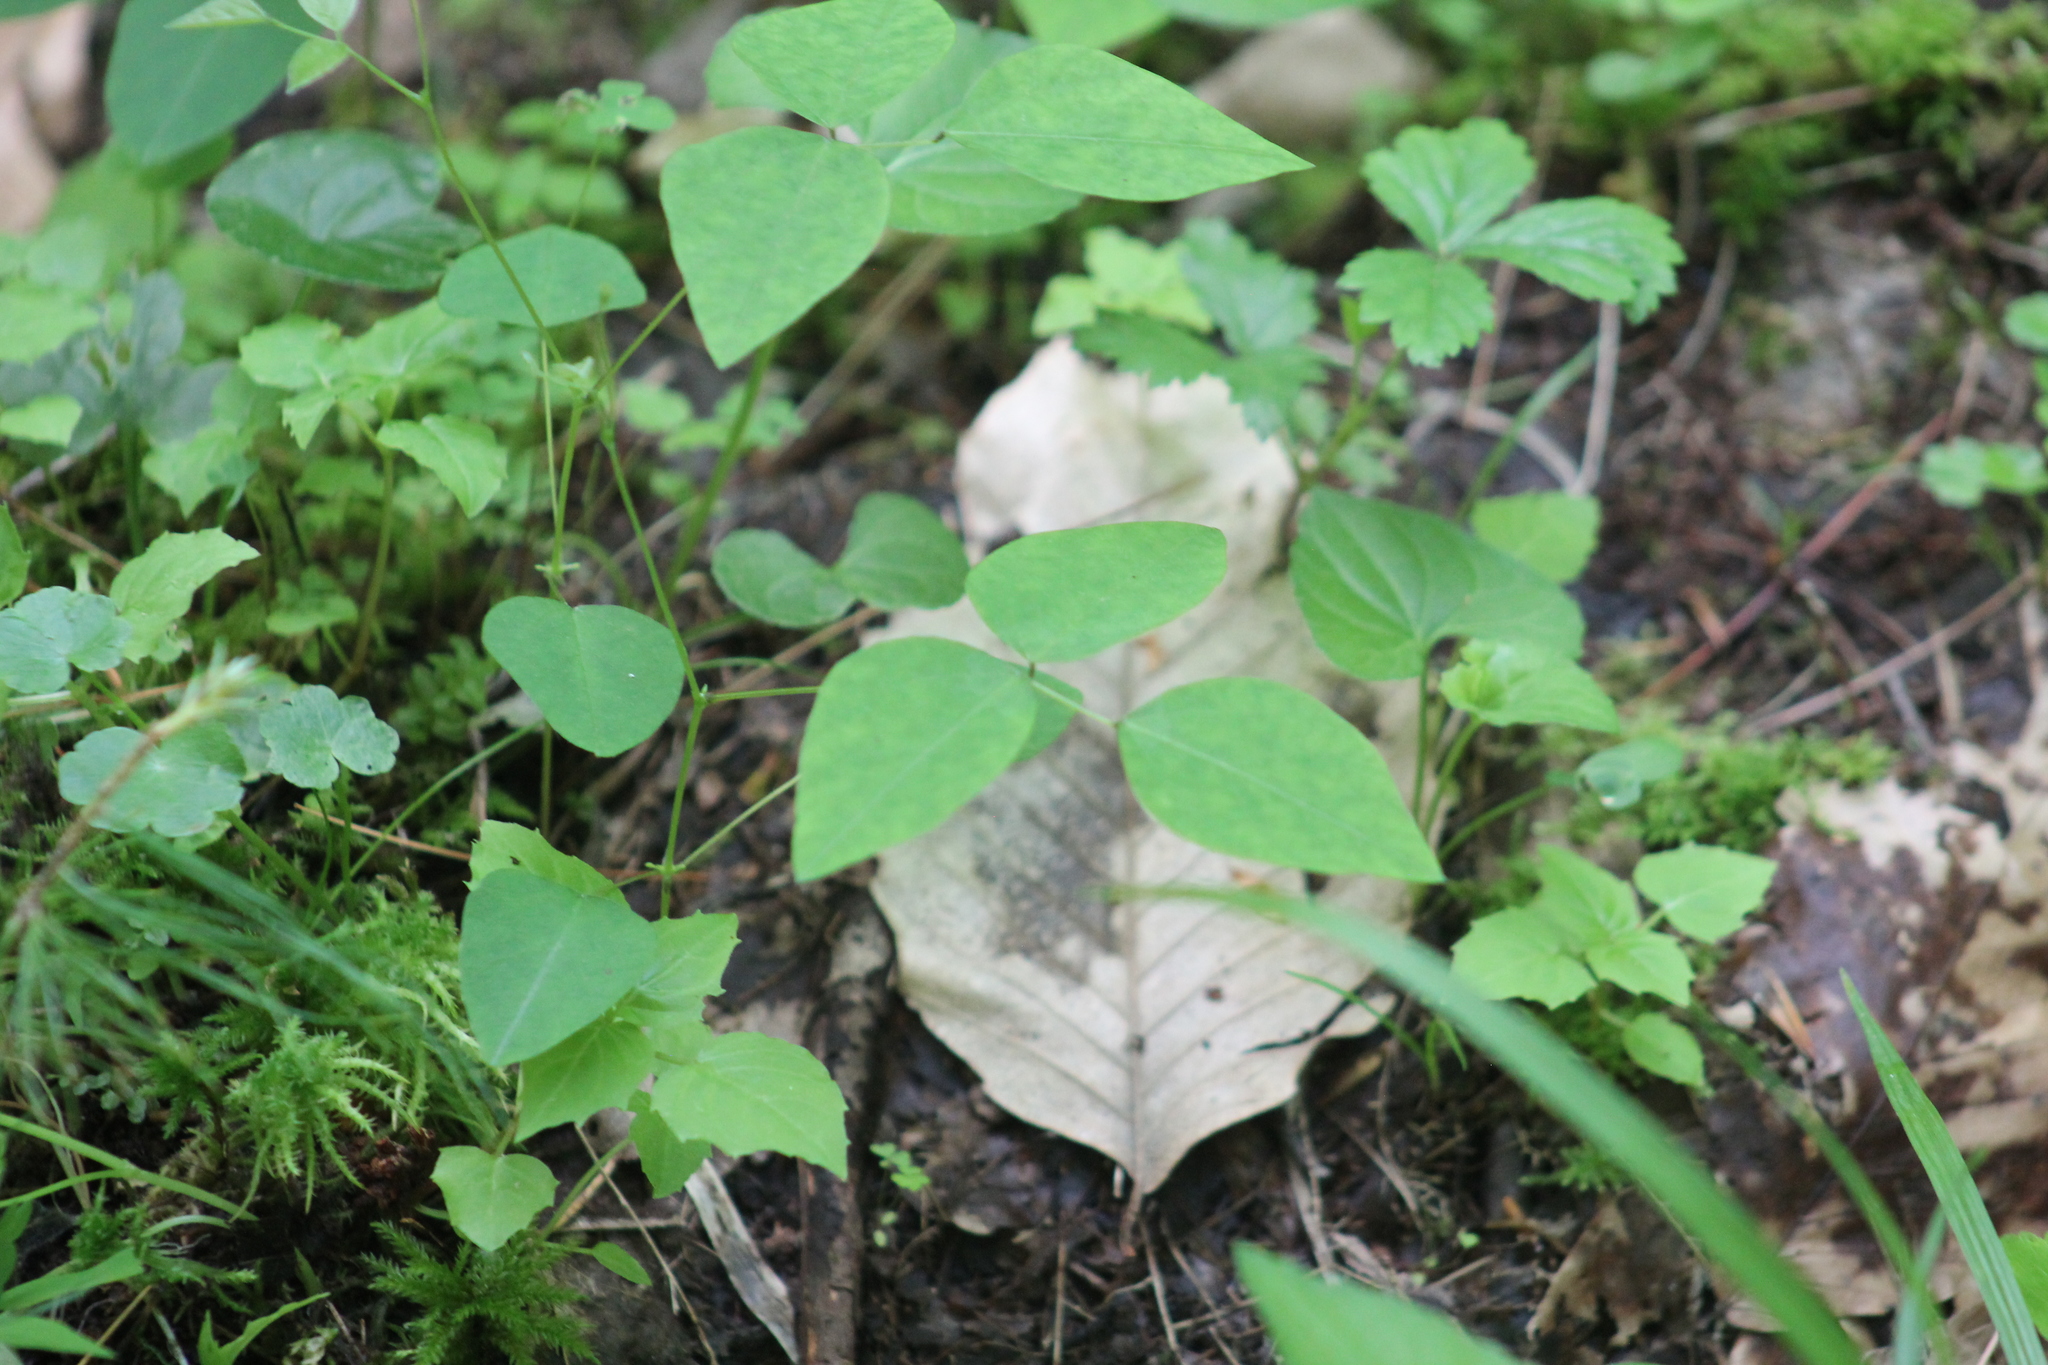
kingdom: Plantae
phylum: Tracheophyta
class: Magnoliopsida
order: Fabales
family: Fabaceae
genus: Amphicarpaea
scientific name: Amphicarpaea bracteata
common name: American hog peanut
